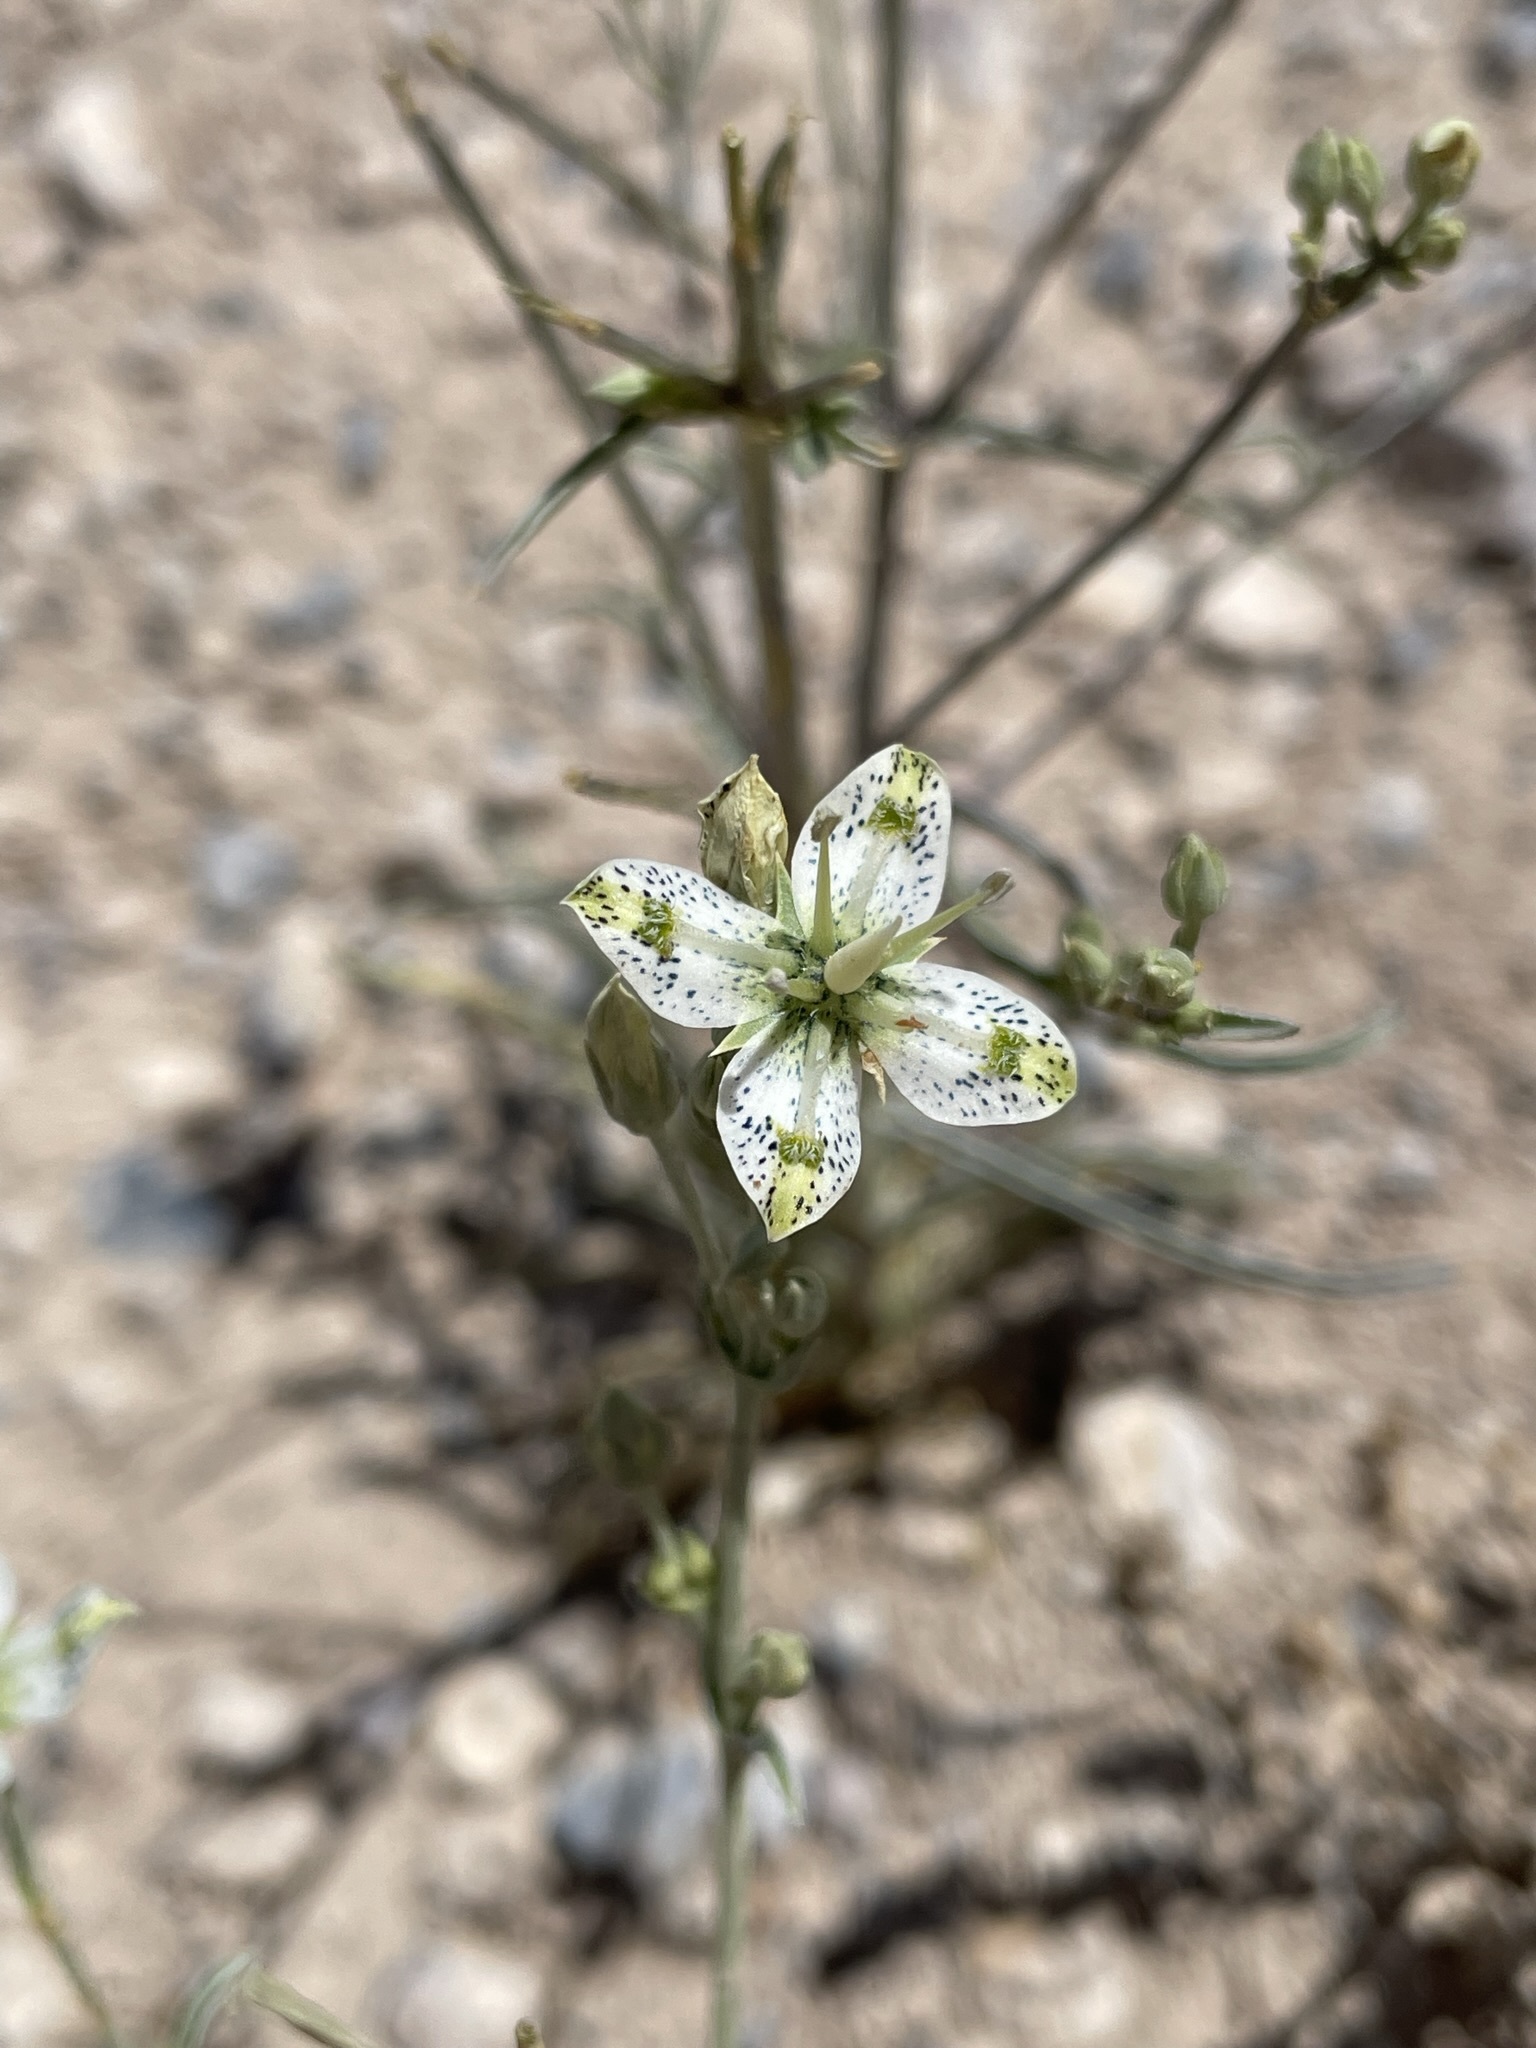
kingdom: Plantae
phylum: Tracheophyta
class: Magnoliopsida
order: Gentianales
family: Gentianaceae
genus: Frasera
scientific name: Frasera albomarginata
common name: Desert frasera
